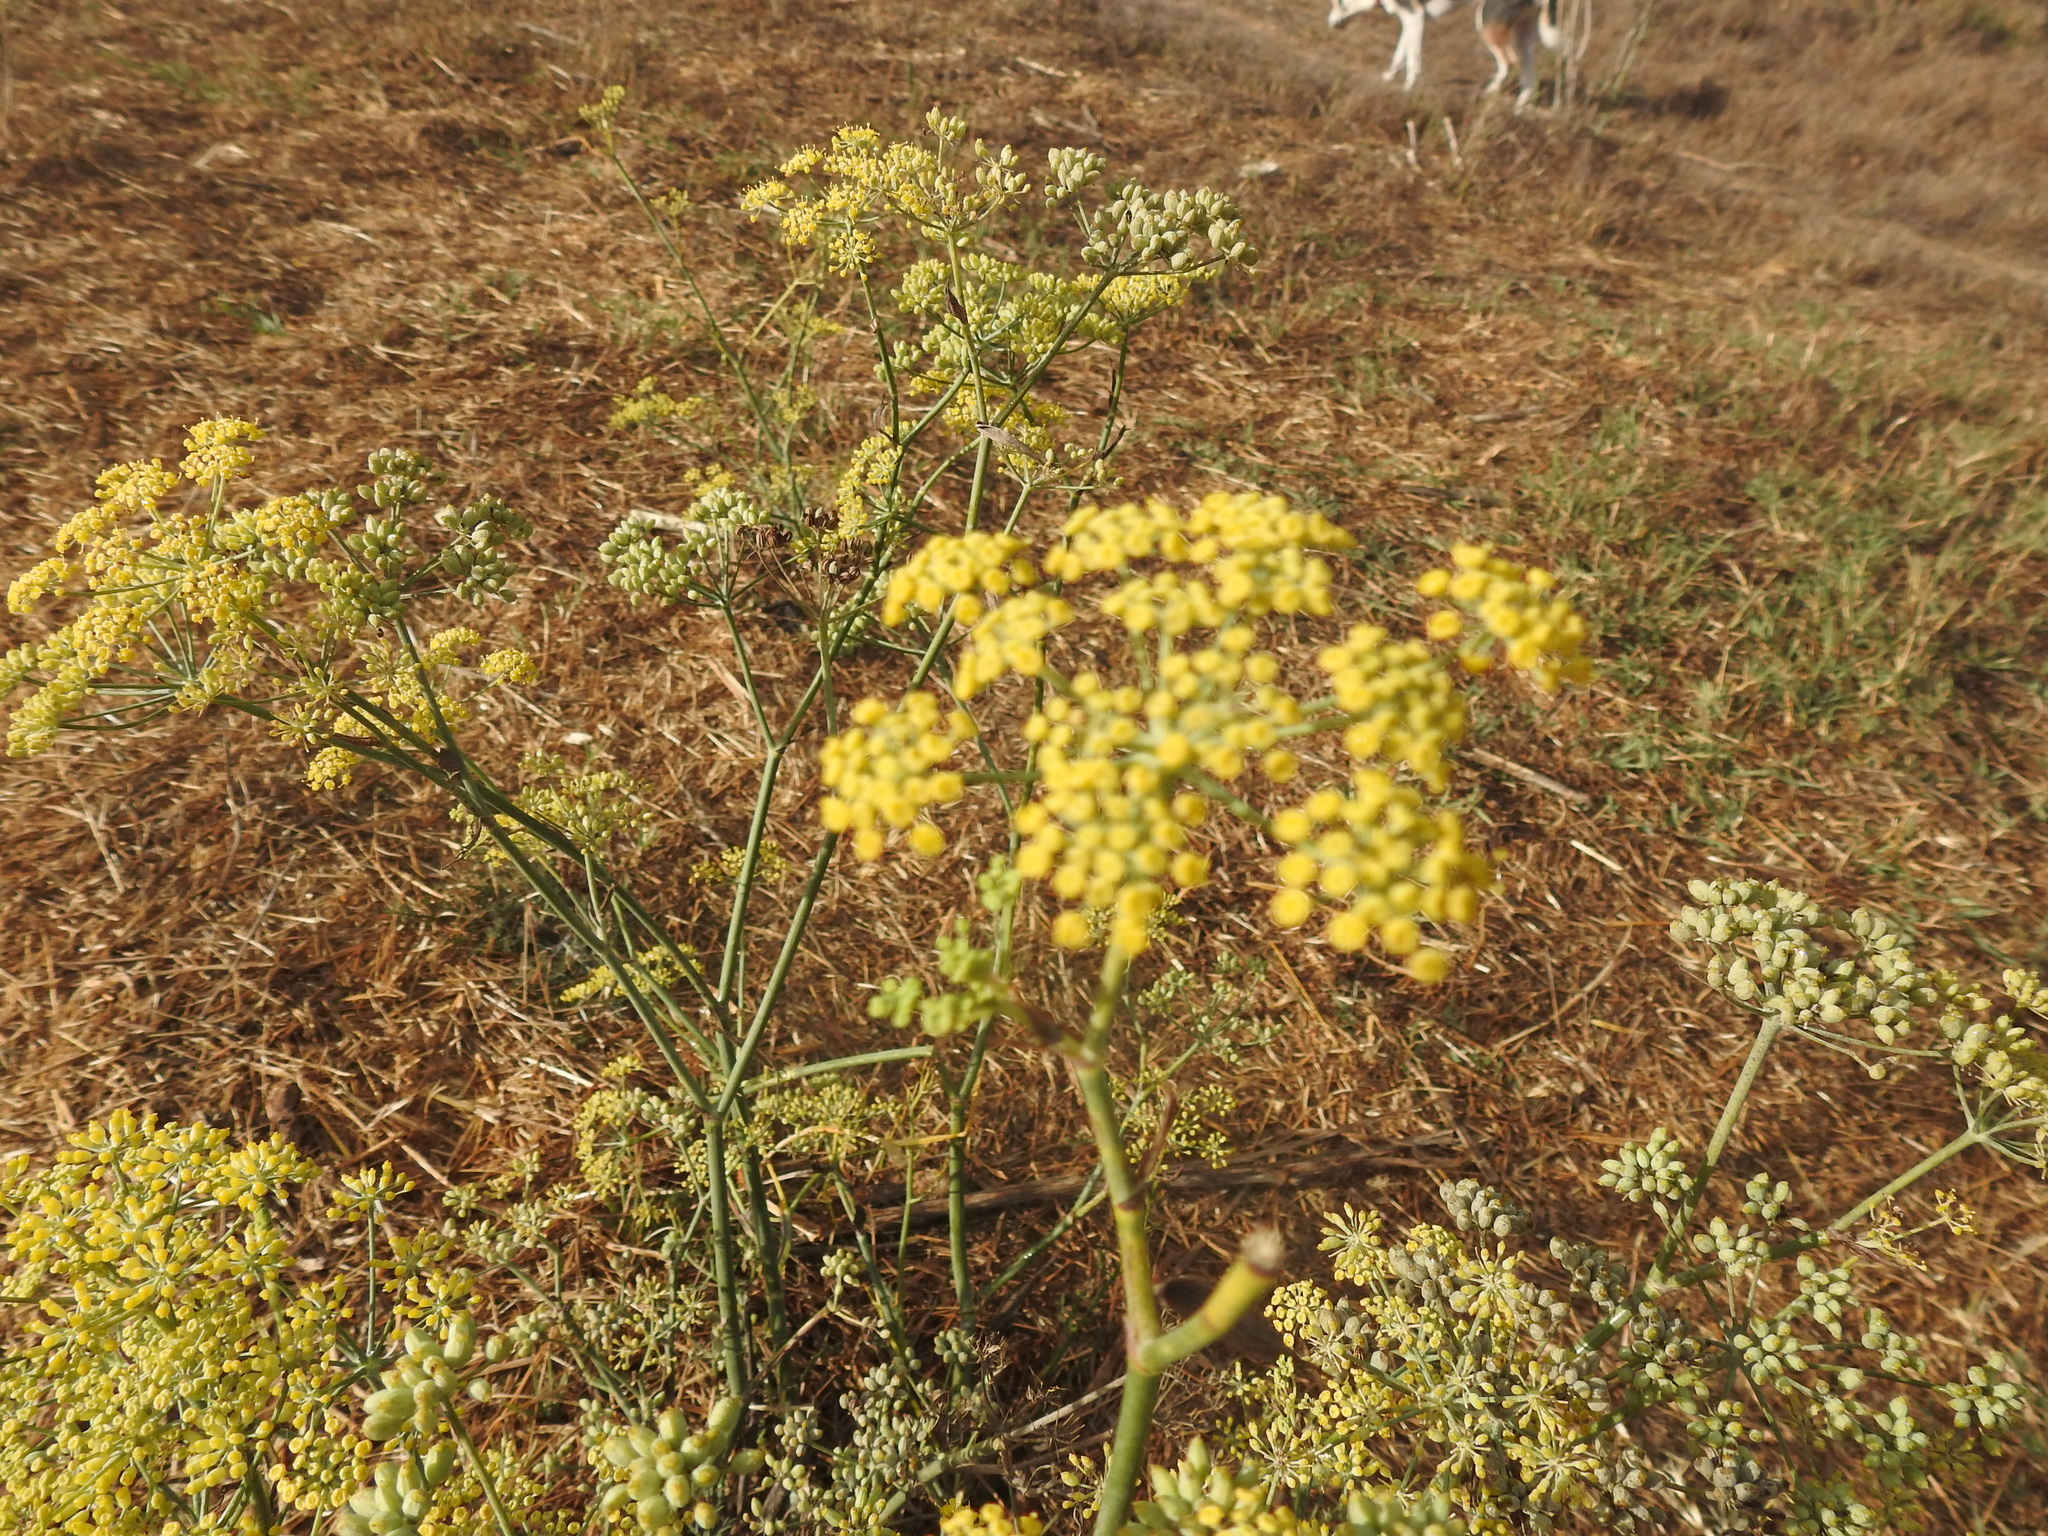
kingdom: Plantae
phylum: Tracheophyta
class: Magnoliopsida
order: Apiales
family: Apiaceae
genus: Foeniculum
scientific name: Foeniculum vulgare
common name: Fennel
